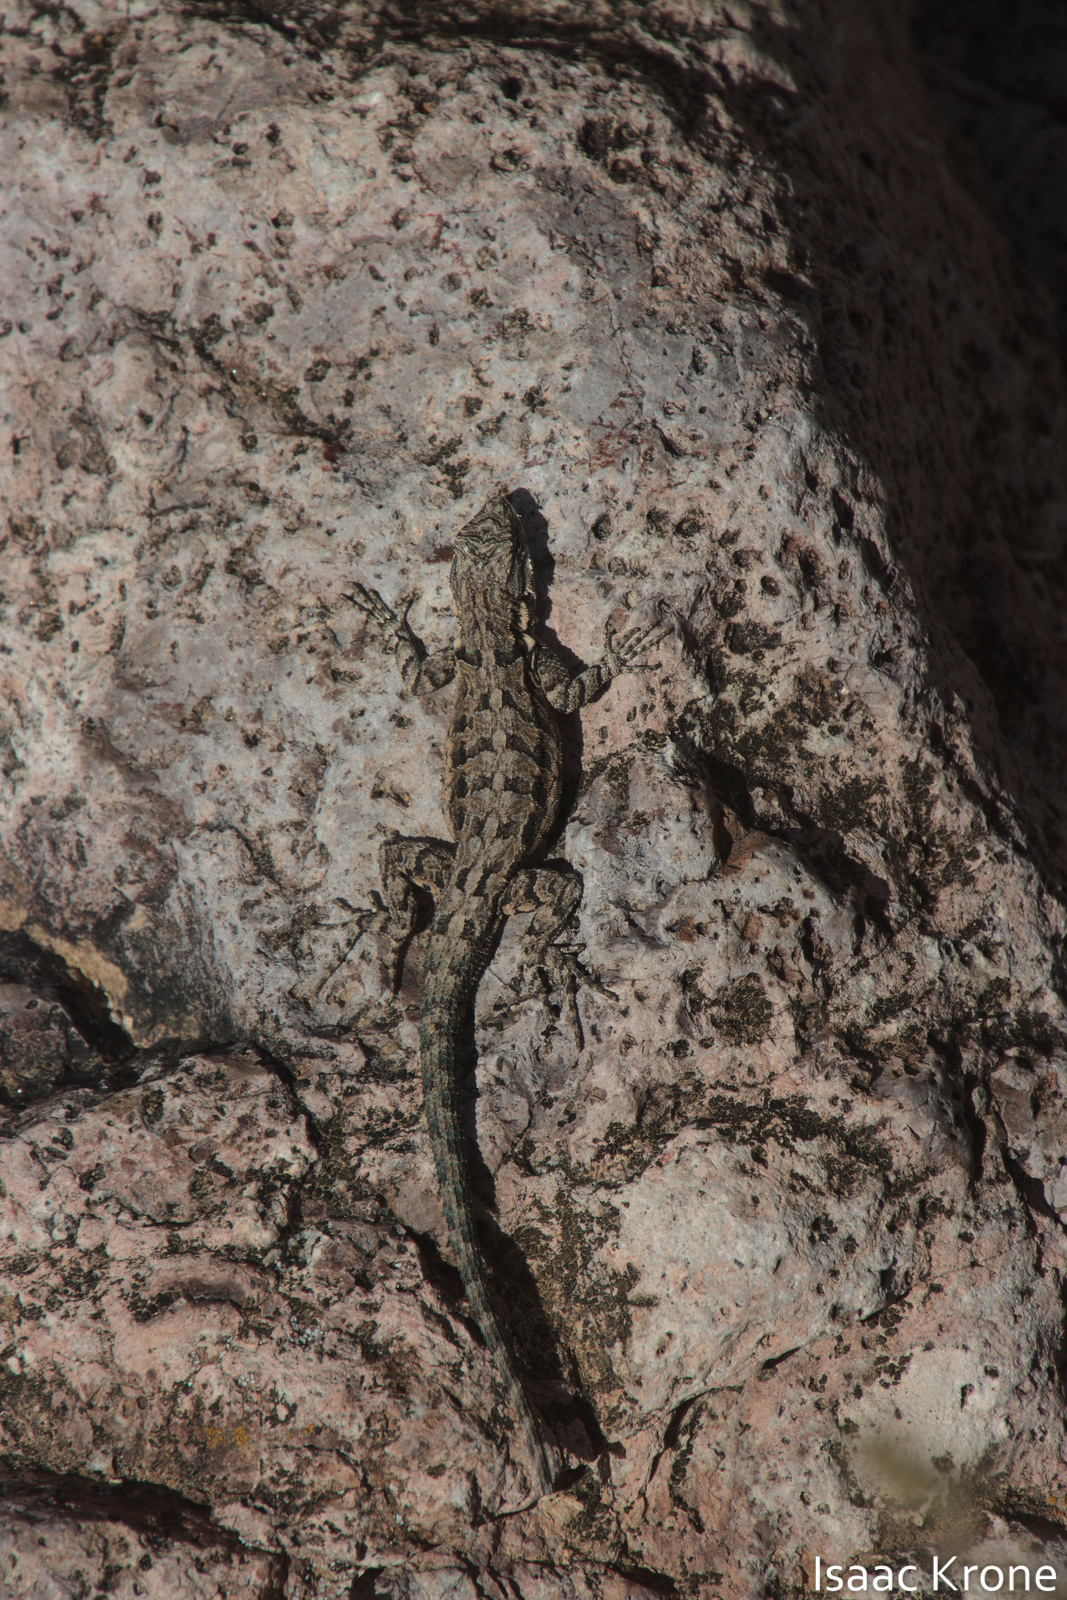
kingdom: Animalia
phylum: Chordata
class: Squamata
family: Phrynosomatidae
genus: Urosaurus
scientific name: Urosaurus ornatus
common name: Ornate tree lizard
